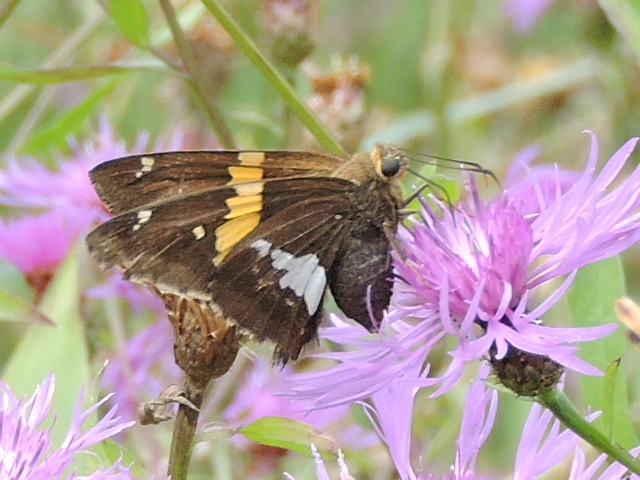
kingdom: Animalia
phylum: Arthropoda
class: Insecta
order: Lepidoptera
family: Hesperiidae
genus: Epargyreus
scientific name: Epargyreus clarus
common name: Silver-spotted skipper
